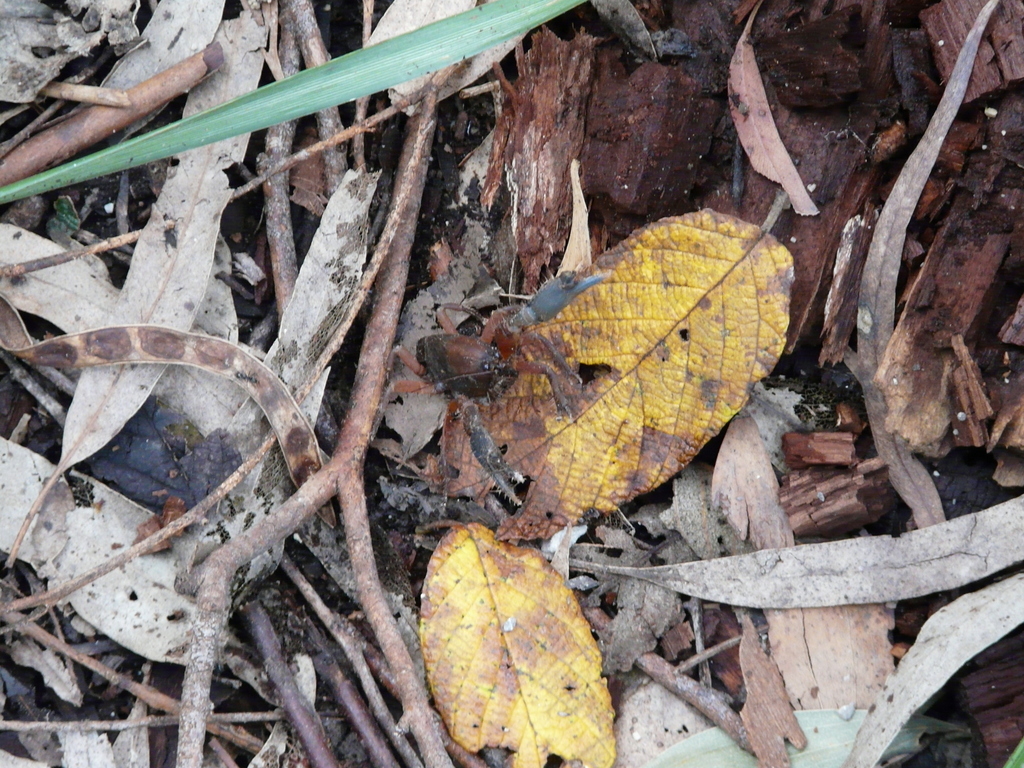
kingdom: Animalia
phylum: Arthropoda
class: Malacostraca
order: Decapoda
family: Parastacidae
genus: Engaeus
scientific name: Engaeus affinis
